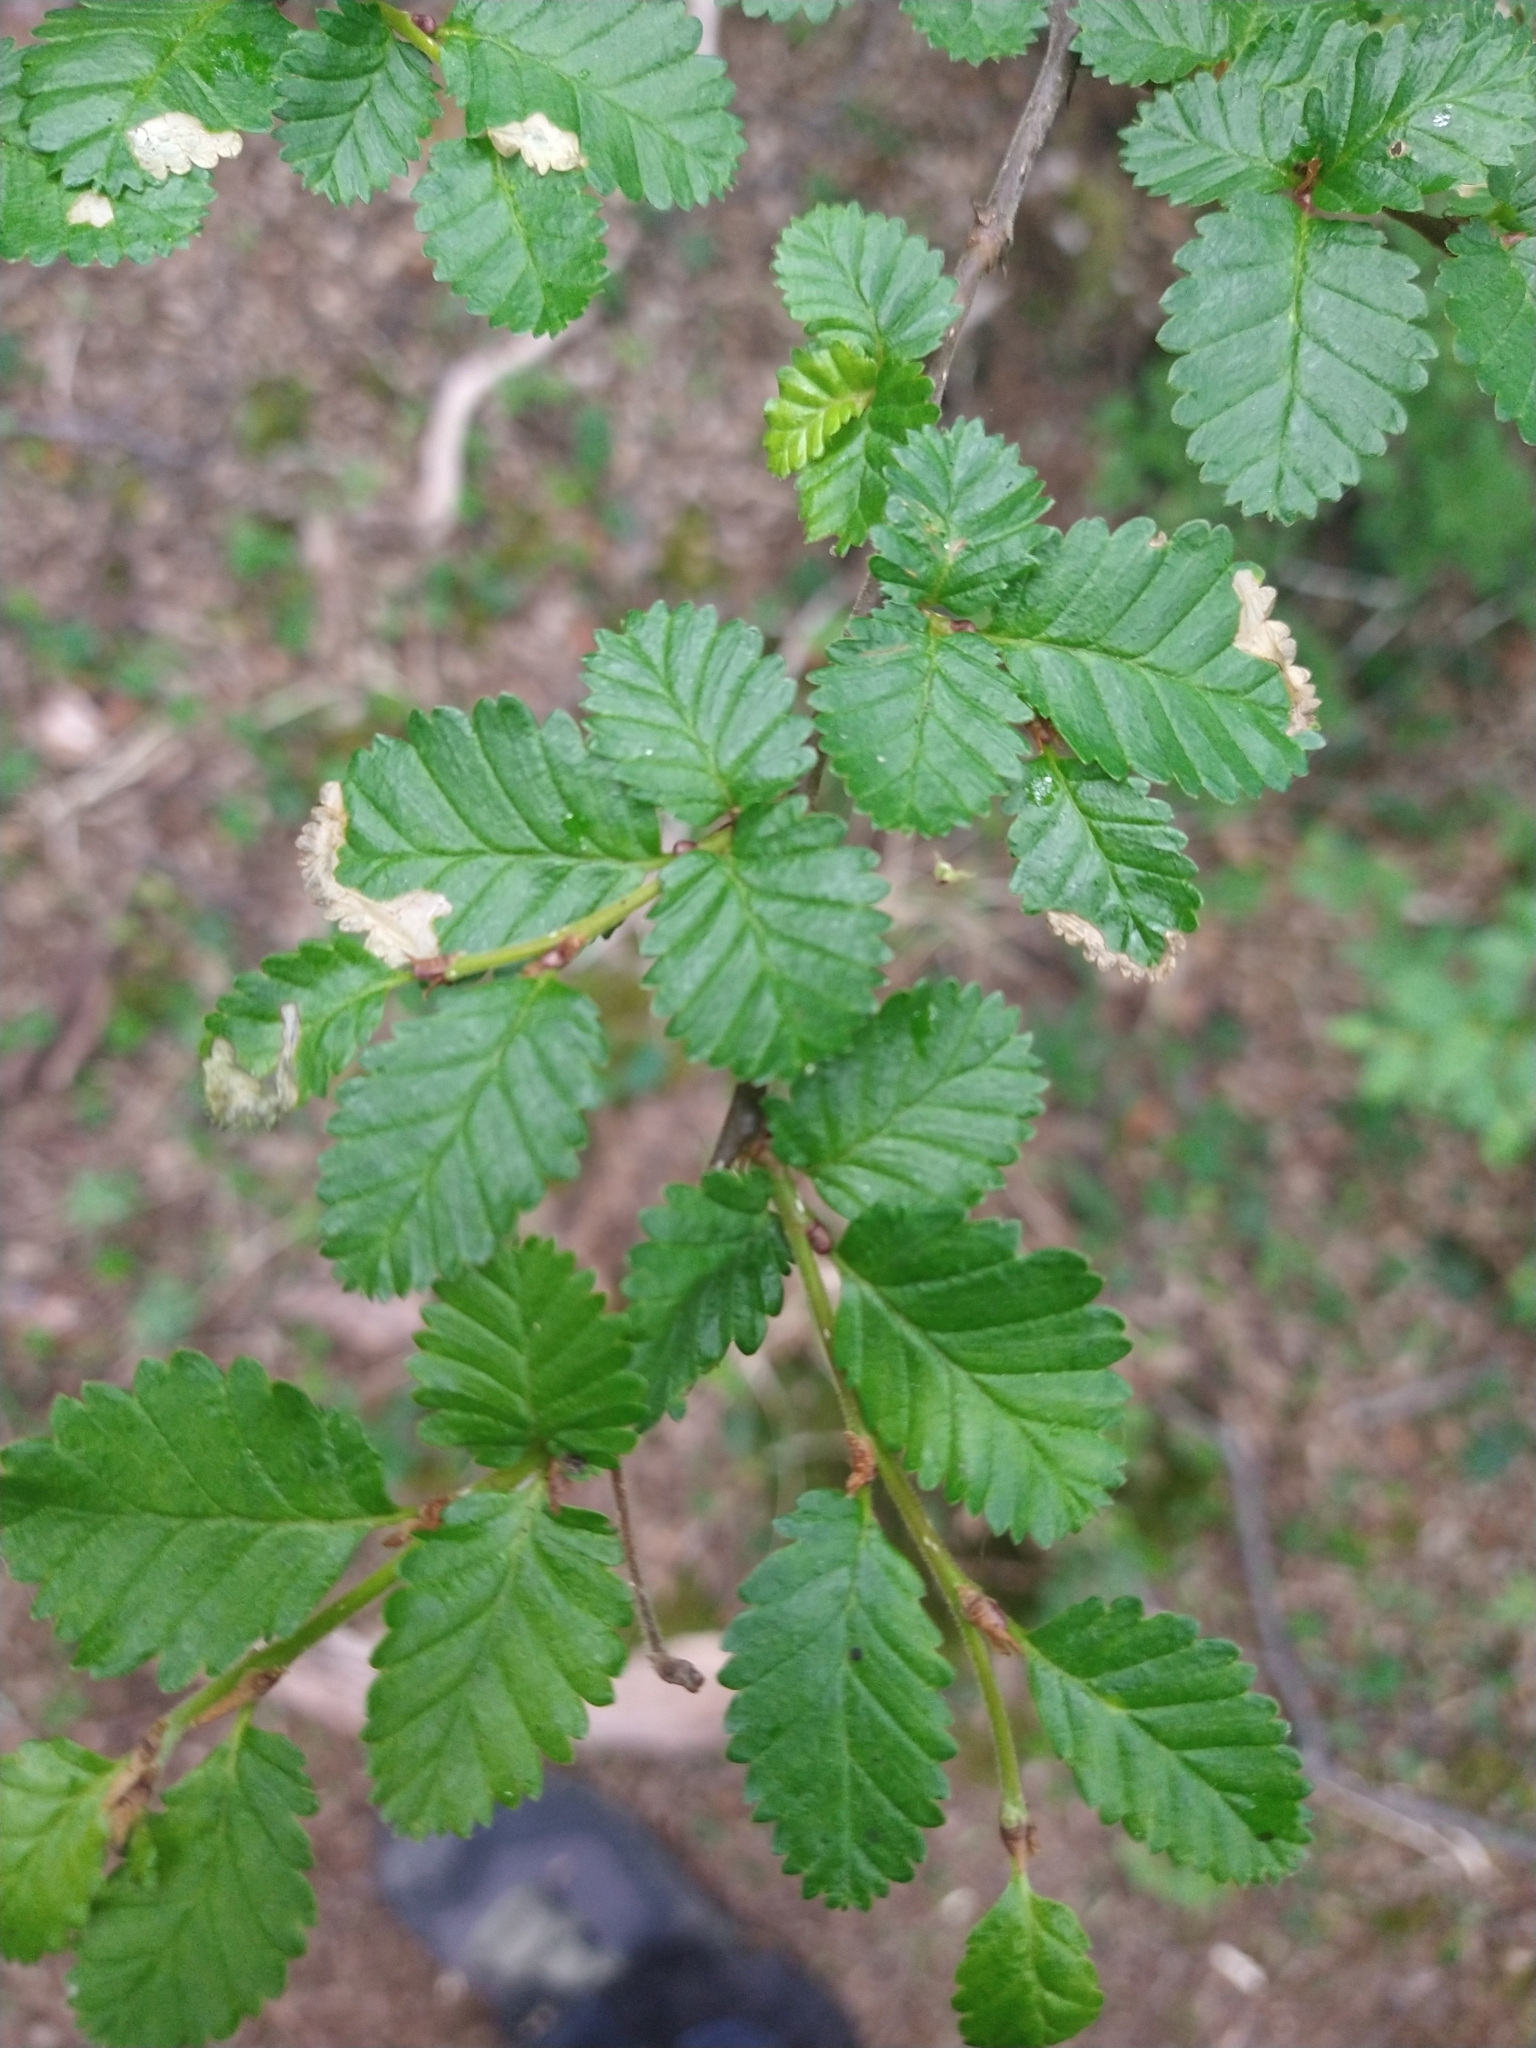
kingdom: Plantae
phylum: Tracheophyta
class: Magnoliopsida
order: Fagales
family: Nothofagaceae
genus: Nothofagus
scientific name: Nothofagus pumilio
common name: Lenga beech
